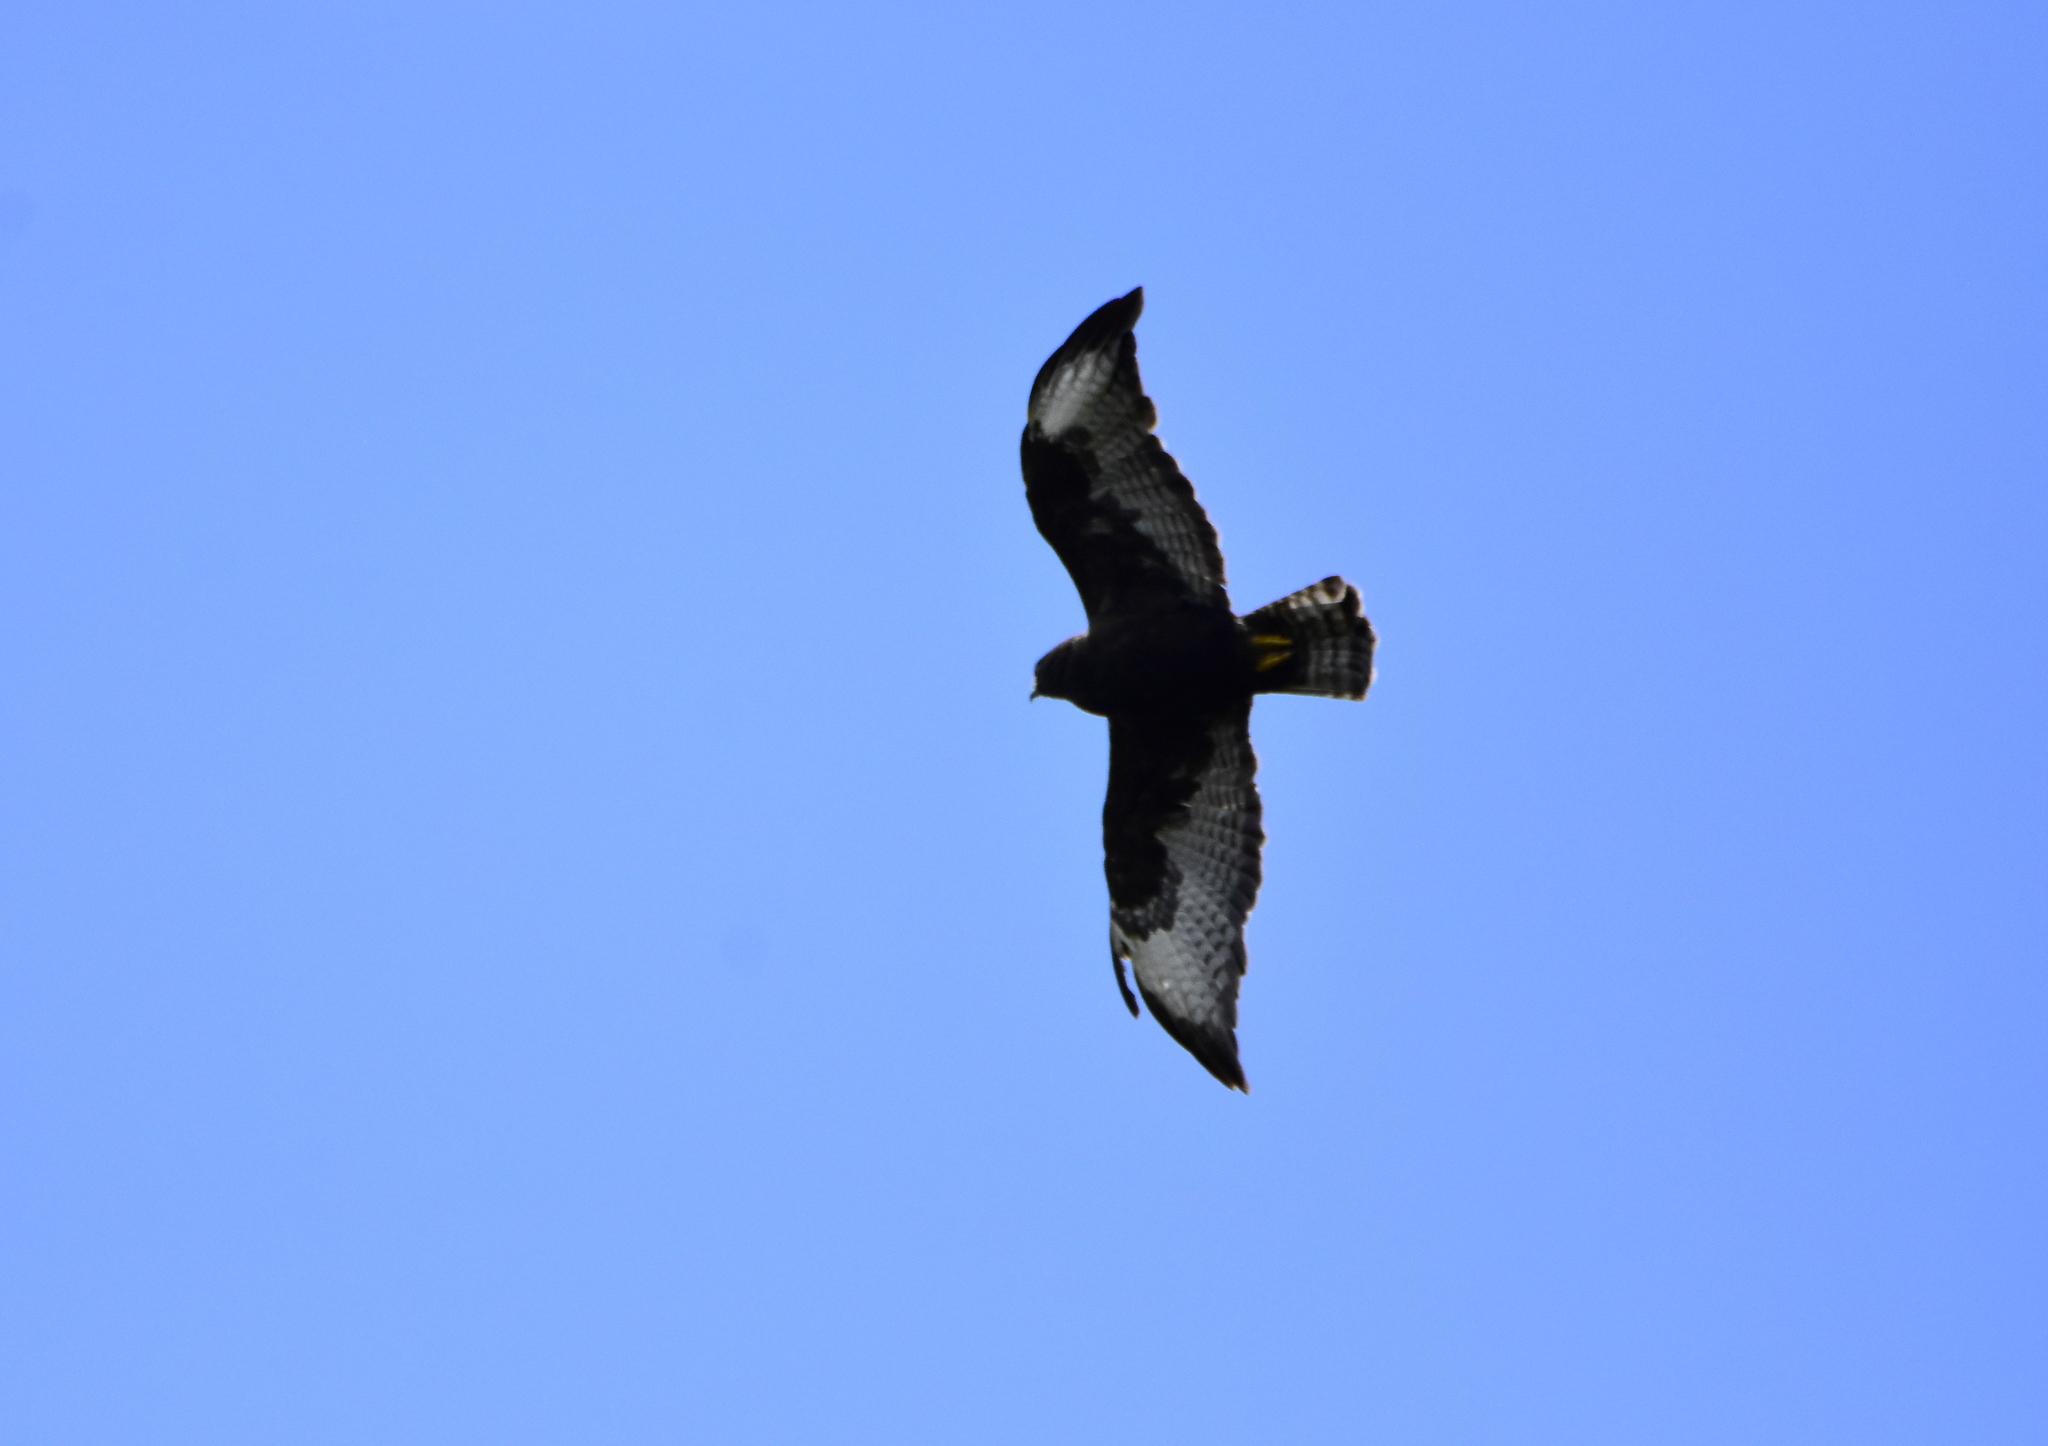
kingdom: Animalia
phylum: Chordata
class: Aves
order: Accipitriformes
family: Accipitridae
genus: Buteo
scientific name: Buteo albonotatus
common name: Zone-tailed hawk
